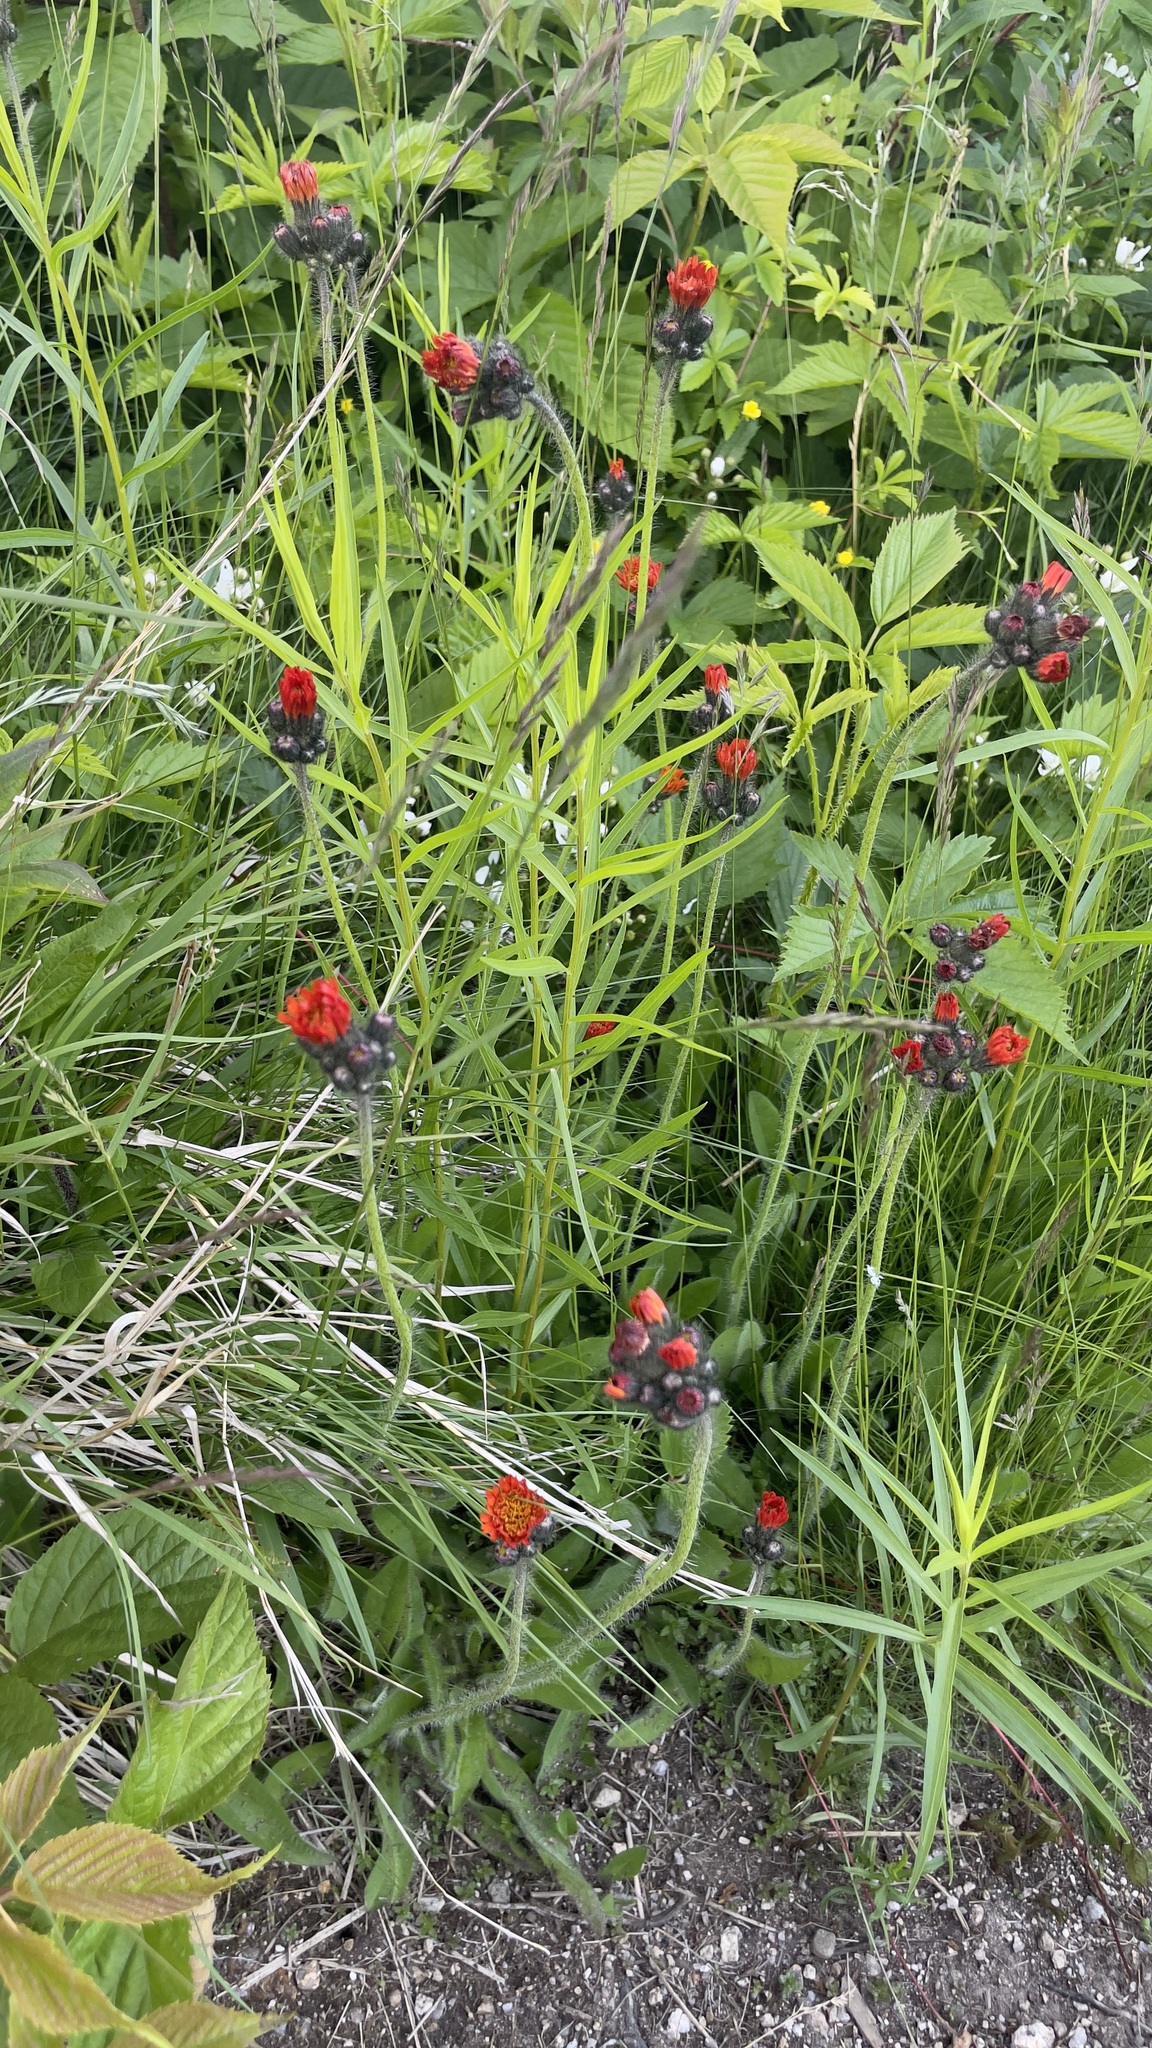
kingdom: Plantae
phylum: Tracheophyta
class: Magnoliopsida
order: Asterales
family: Asteraceae
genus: Pilosella
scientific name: Pilosella aurantiaca
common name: Fox-and-cubs
